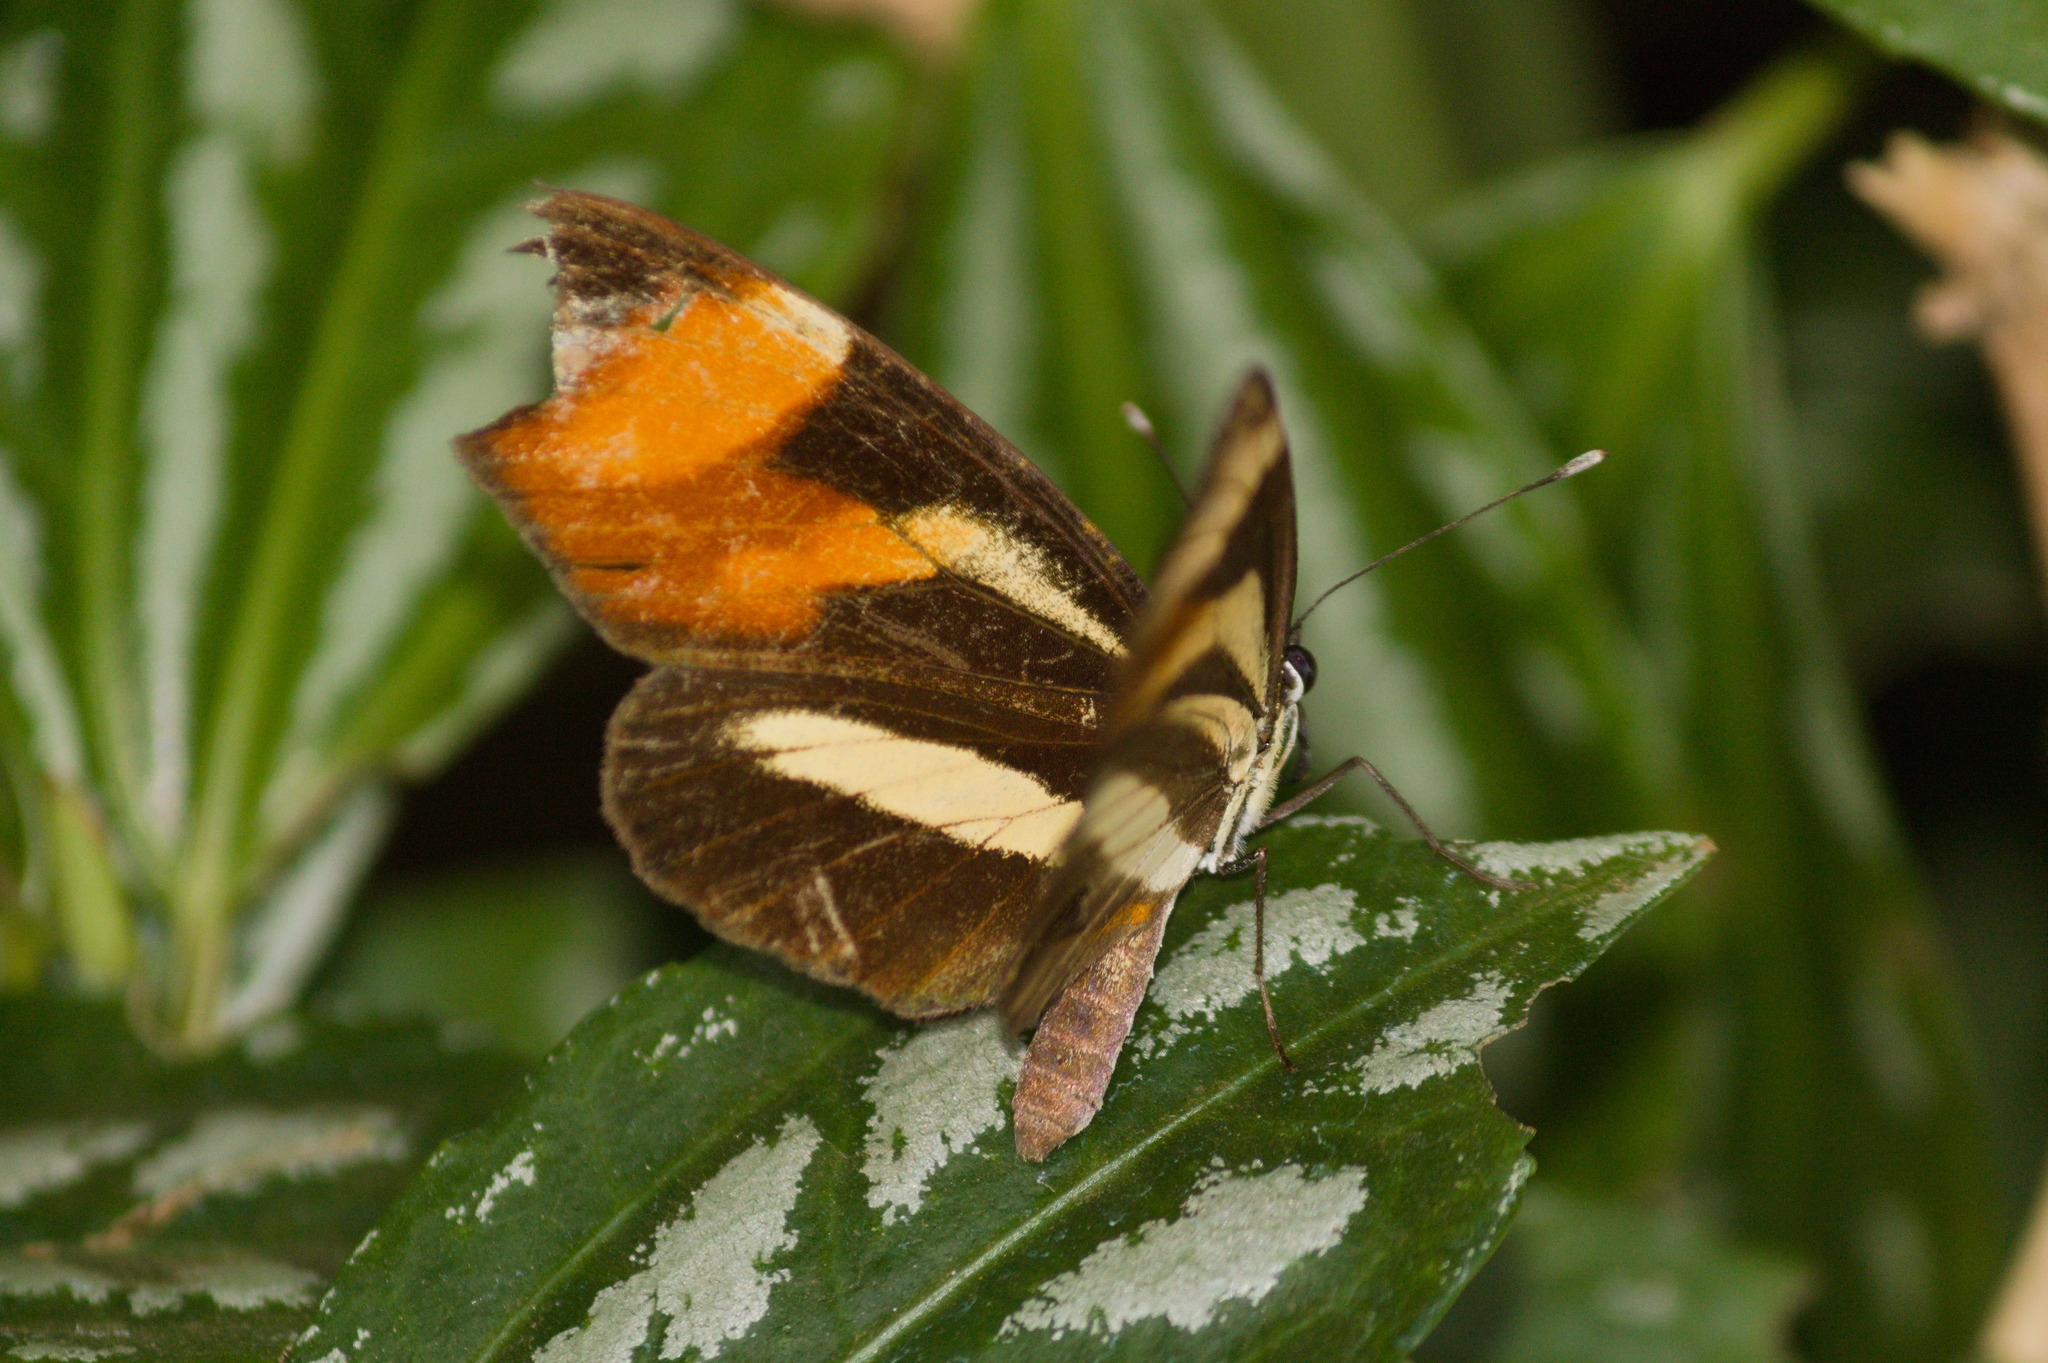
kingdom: Animalia
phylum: Arthropoda
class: Insecta
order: Lepidoptera
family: Nymphalidae
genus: Eresia
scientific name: Eresia lansdorfi
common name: Lansdorf's crescent
